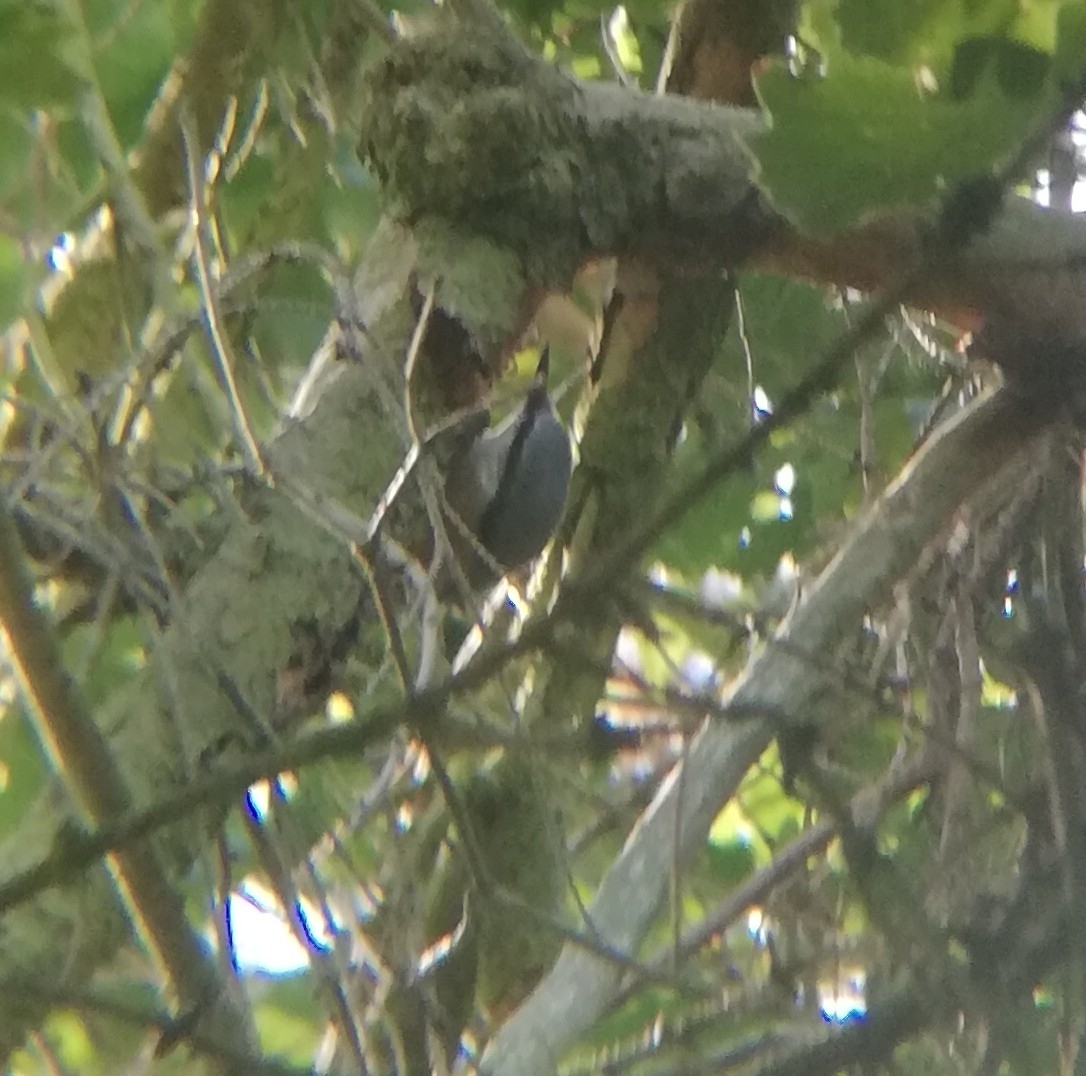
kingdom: Animalia
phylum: Chordata
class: Aves
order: Passeriformes
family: Sittidae
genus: Sitta
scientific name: Sitta europaea
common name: Eurasian nuthatch
